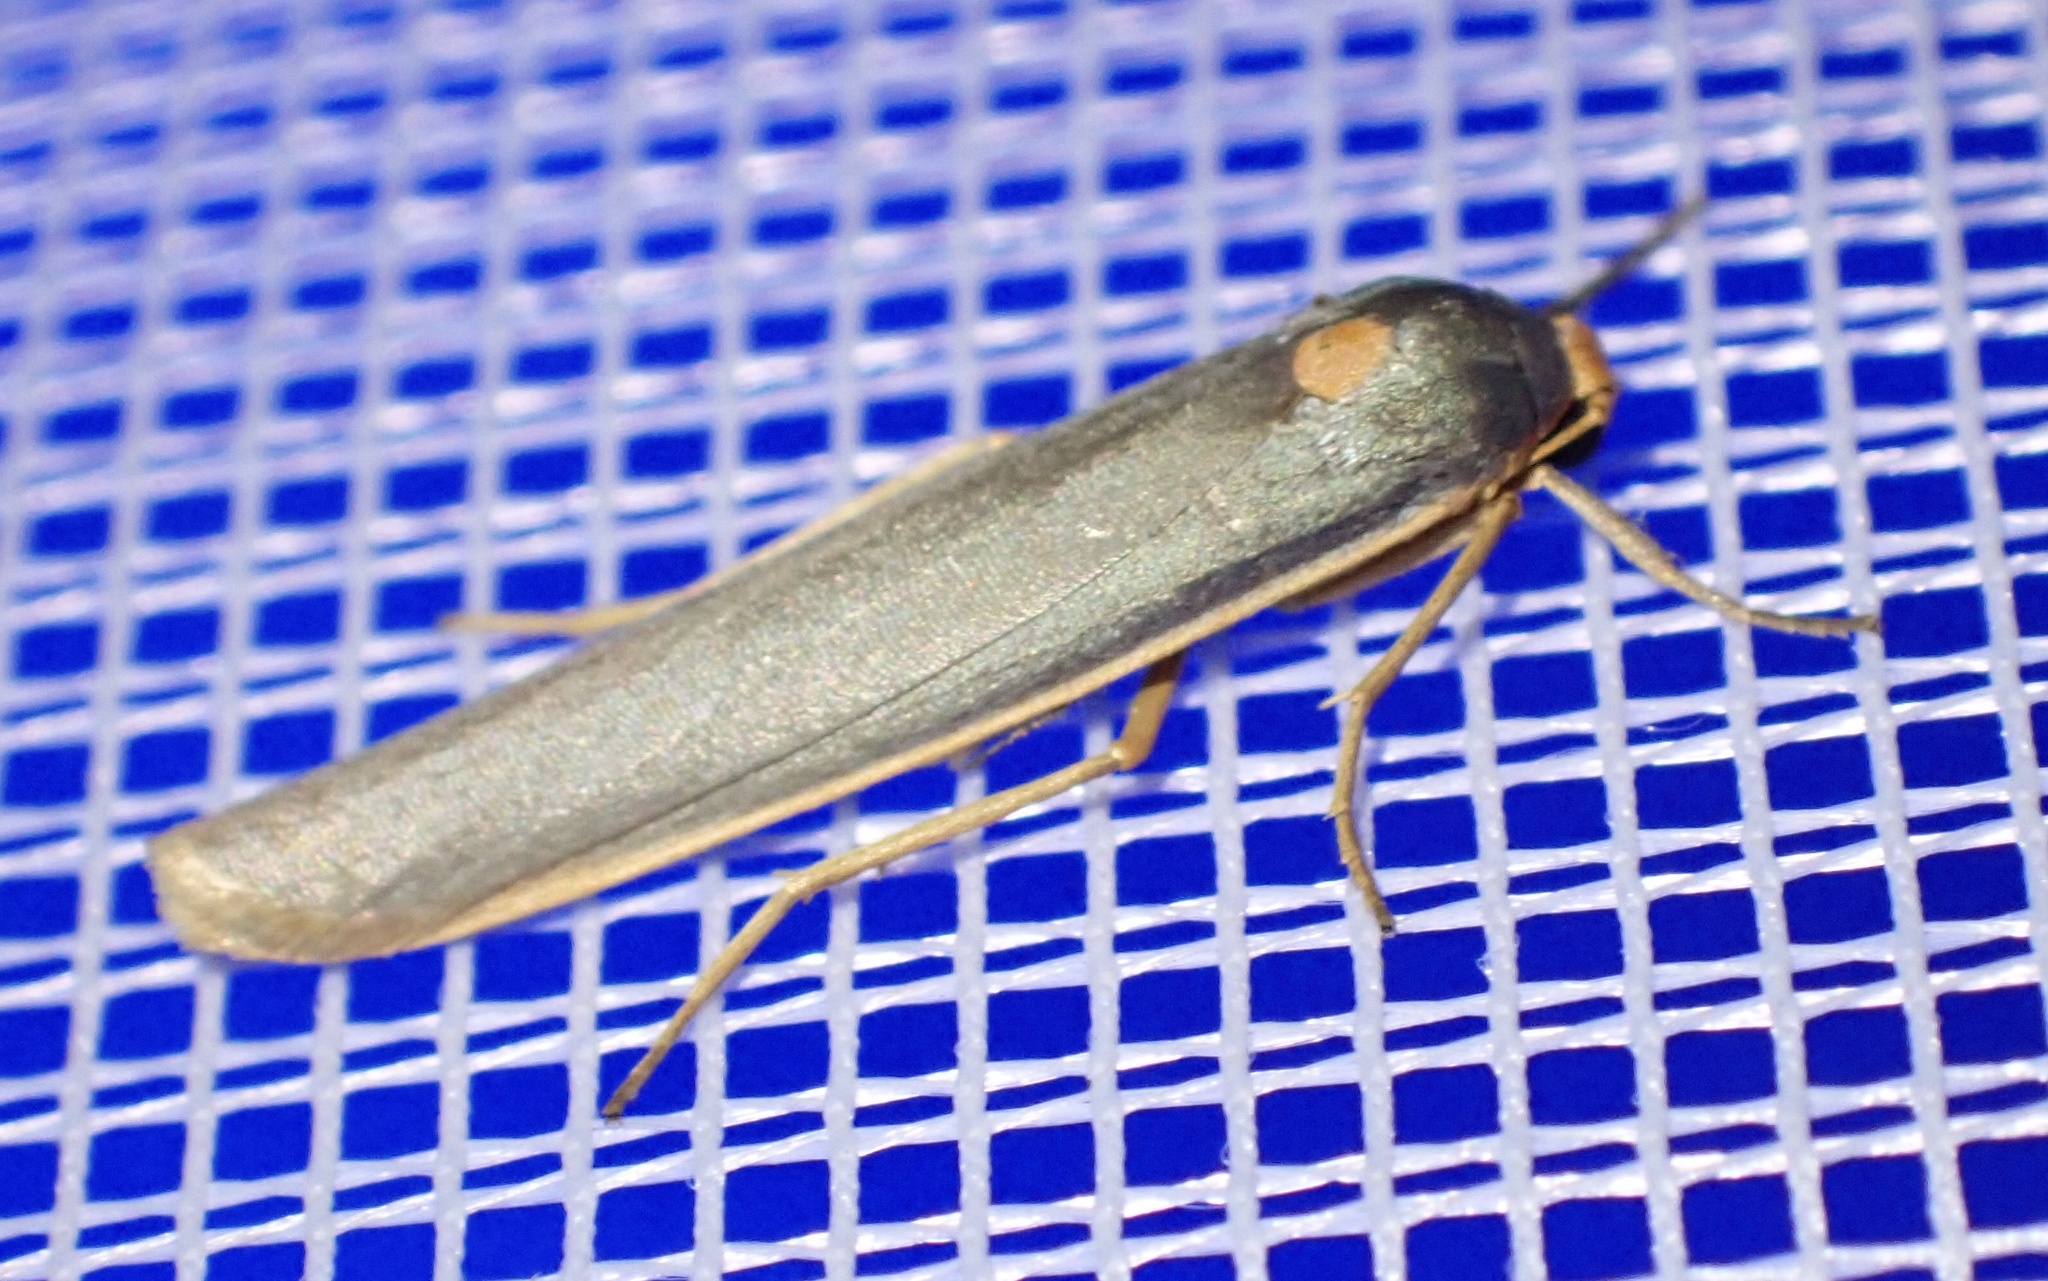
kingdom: Animalia
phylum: Arthropoda
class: Insecta
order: Lepidoptera
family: Erebidae
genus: Sozusa
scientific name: Sozusa scutellata
